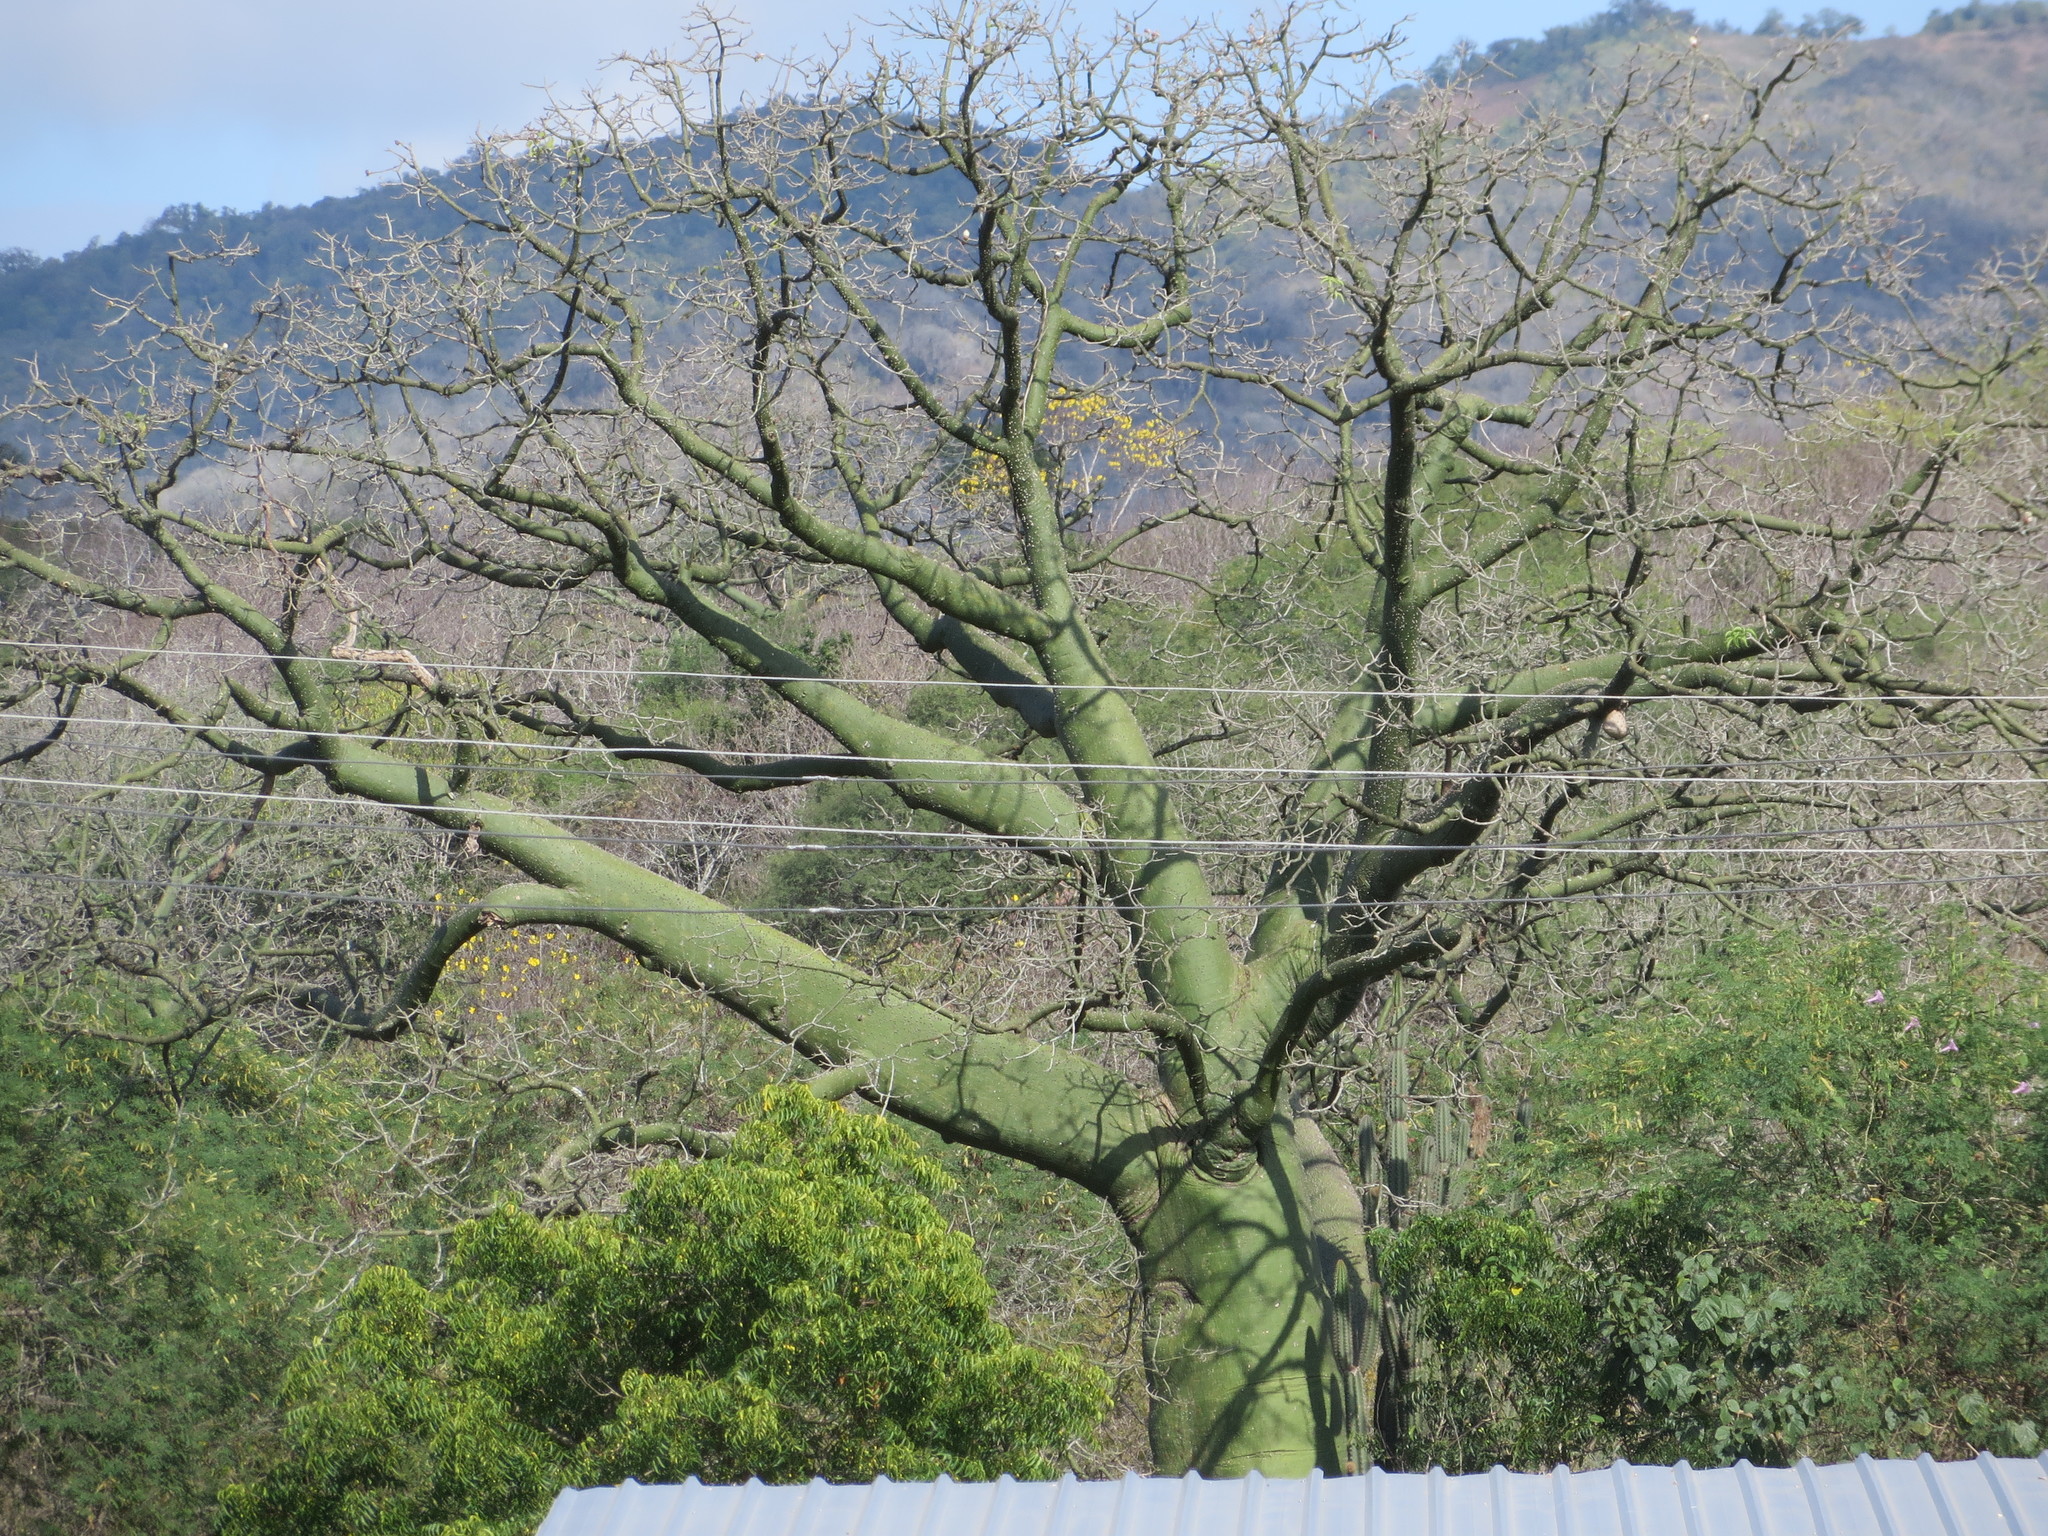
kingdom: Plantae
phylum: Tracheophyta
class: Magnoliopsida
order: Malvales
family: Malvaceae
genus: Ceiba
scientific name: Ceiba trischistandra
